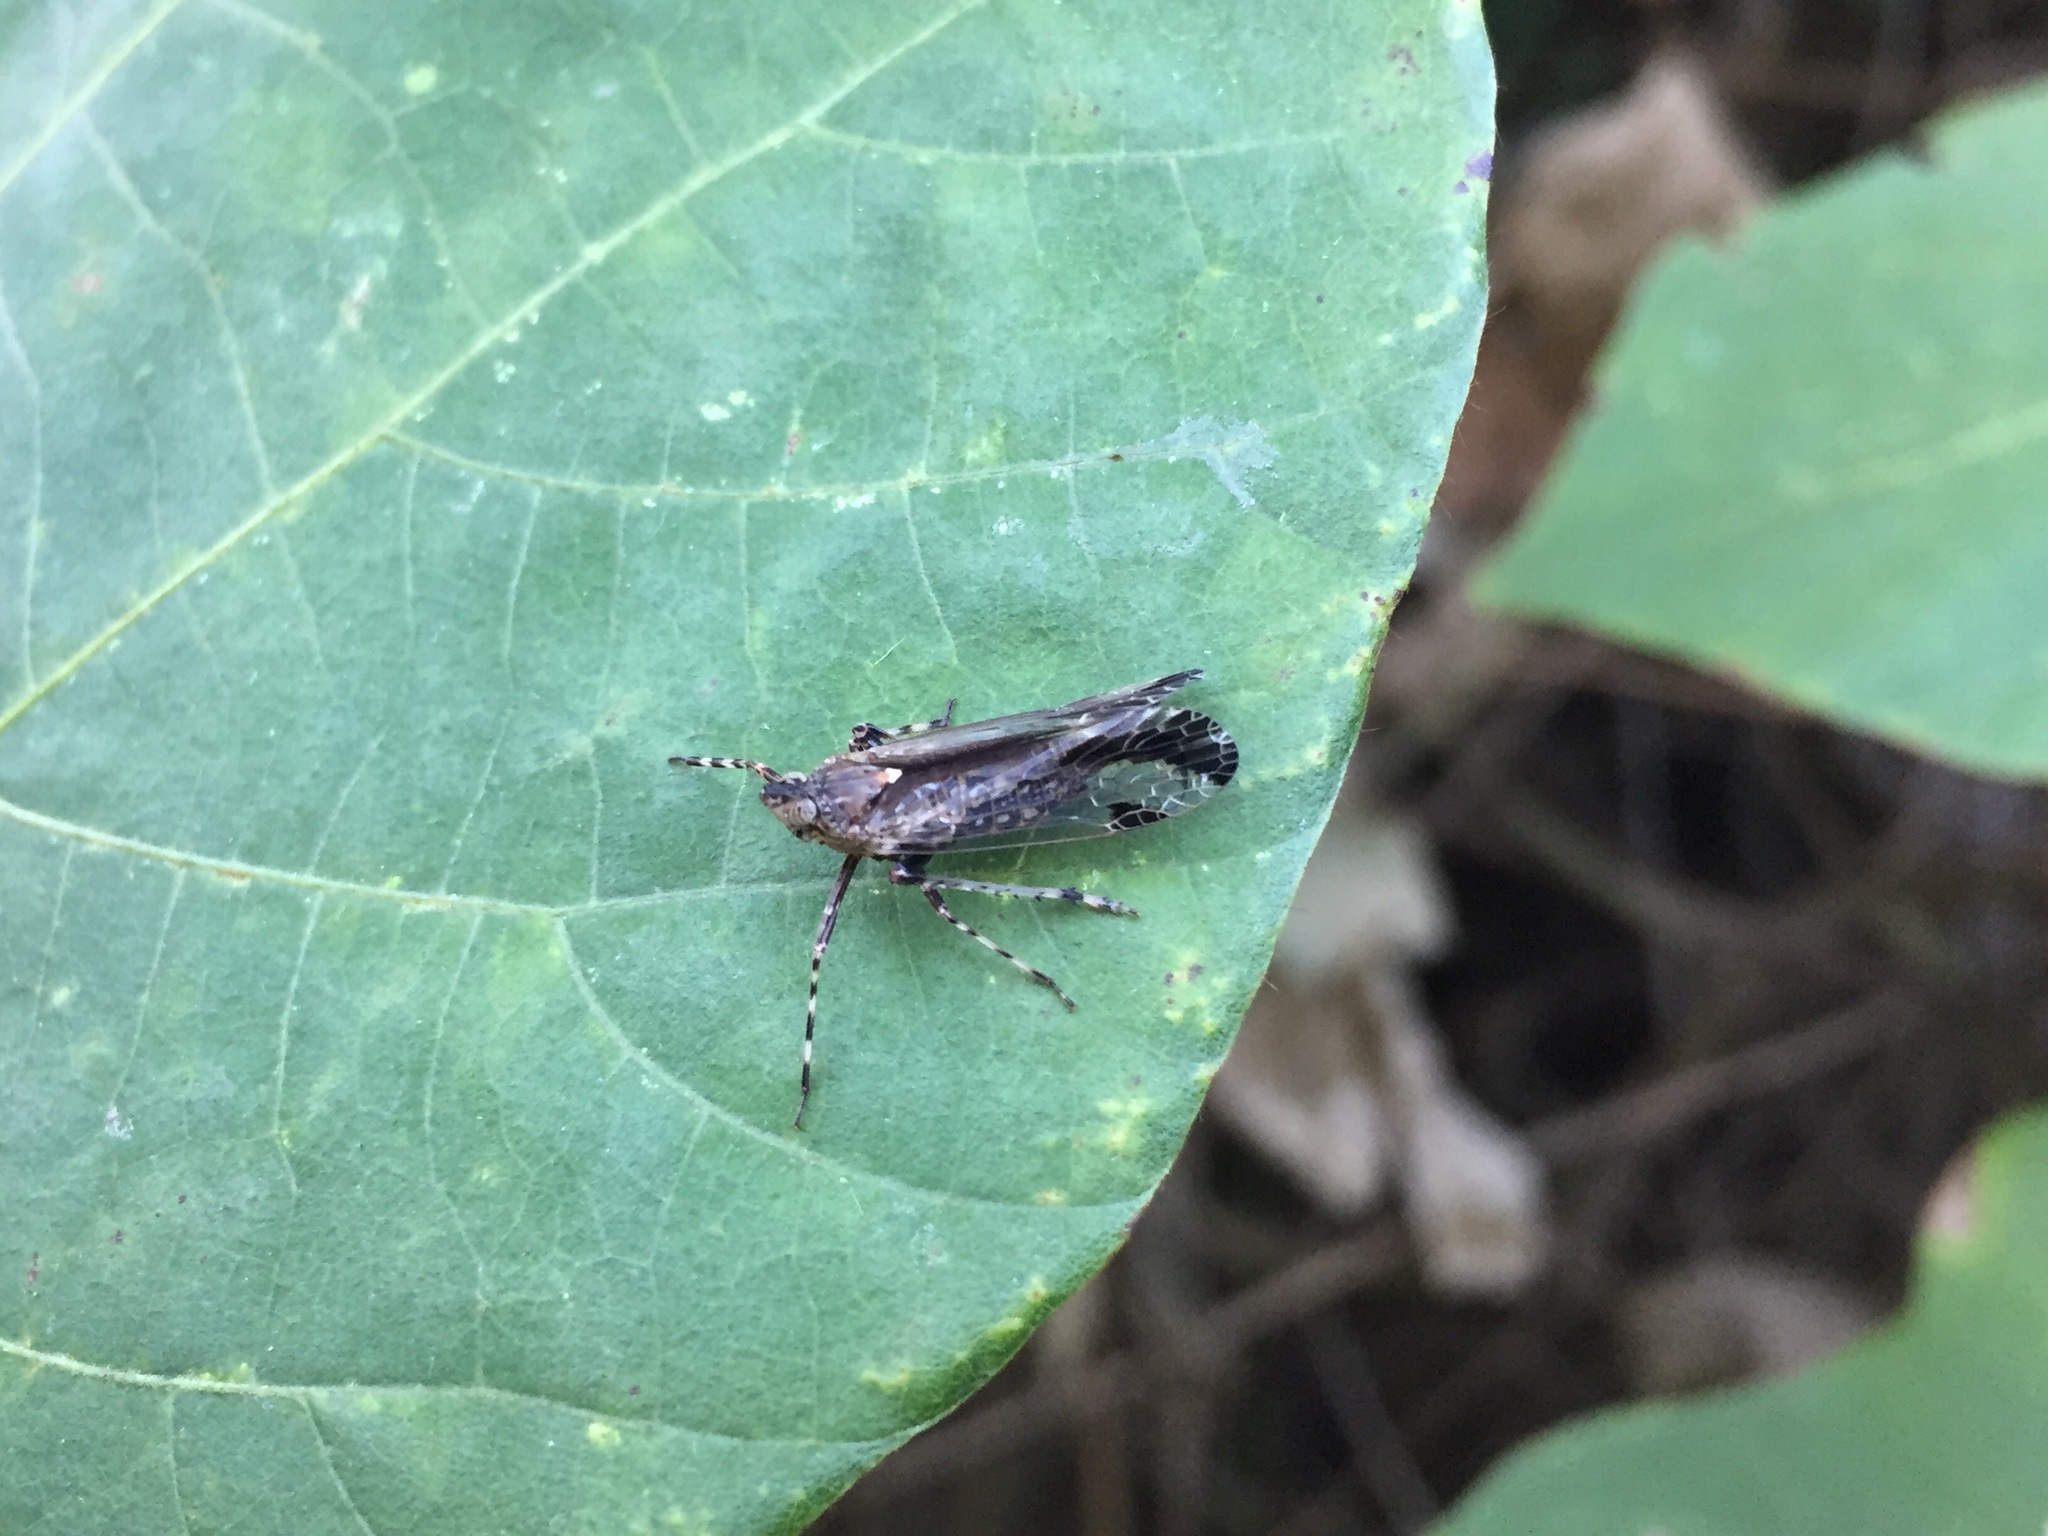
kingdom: Animalia
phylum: Arthropoda
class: Insecta
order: Hemiptera
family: Dictyopharidae
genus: Orthopagus
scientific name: Orthopagus lunulifer
